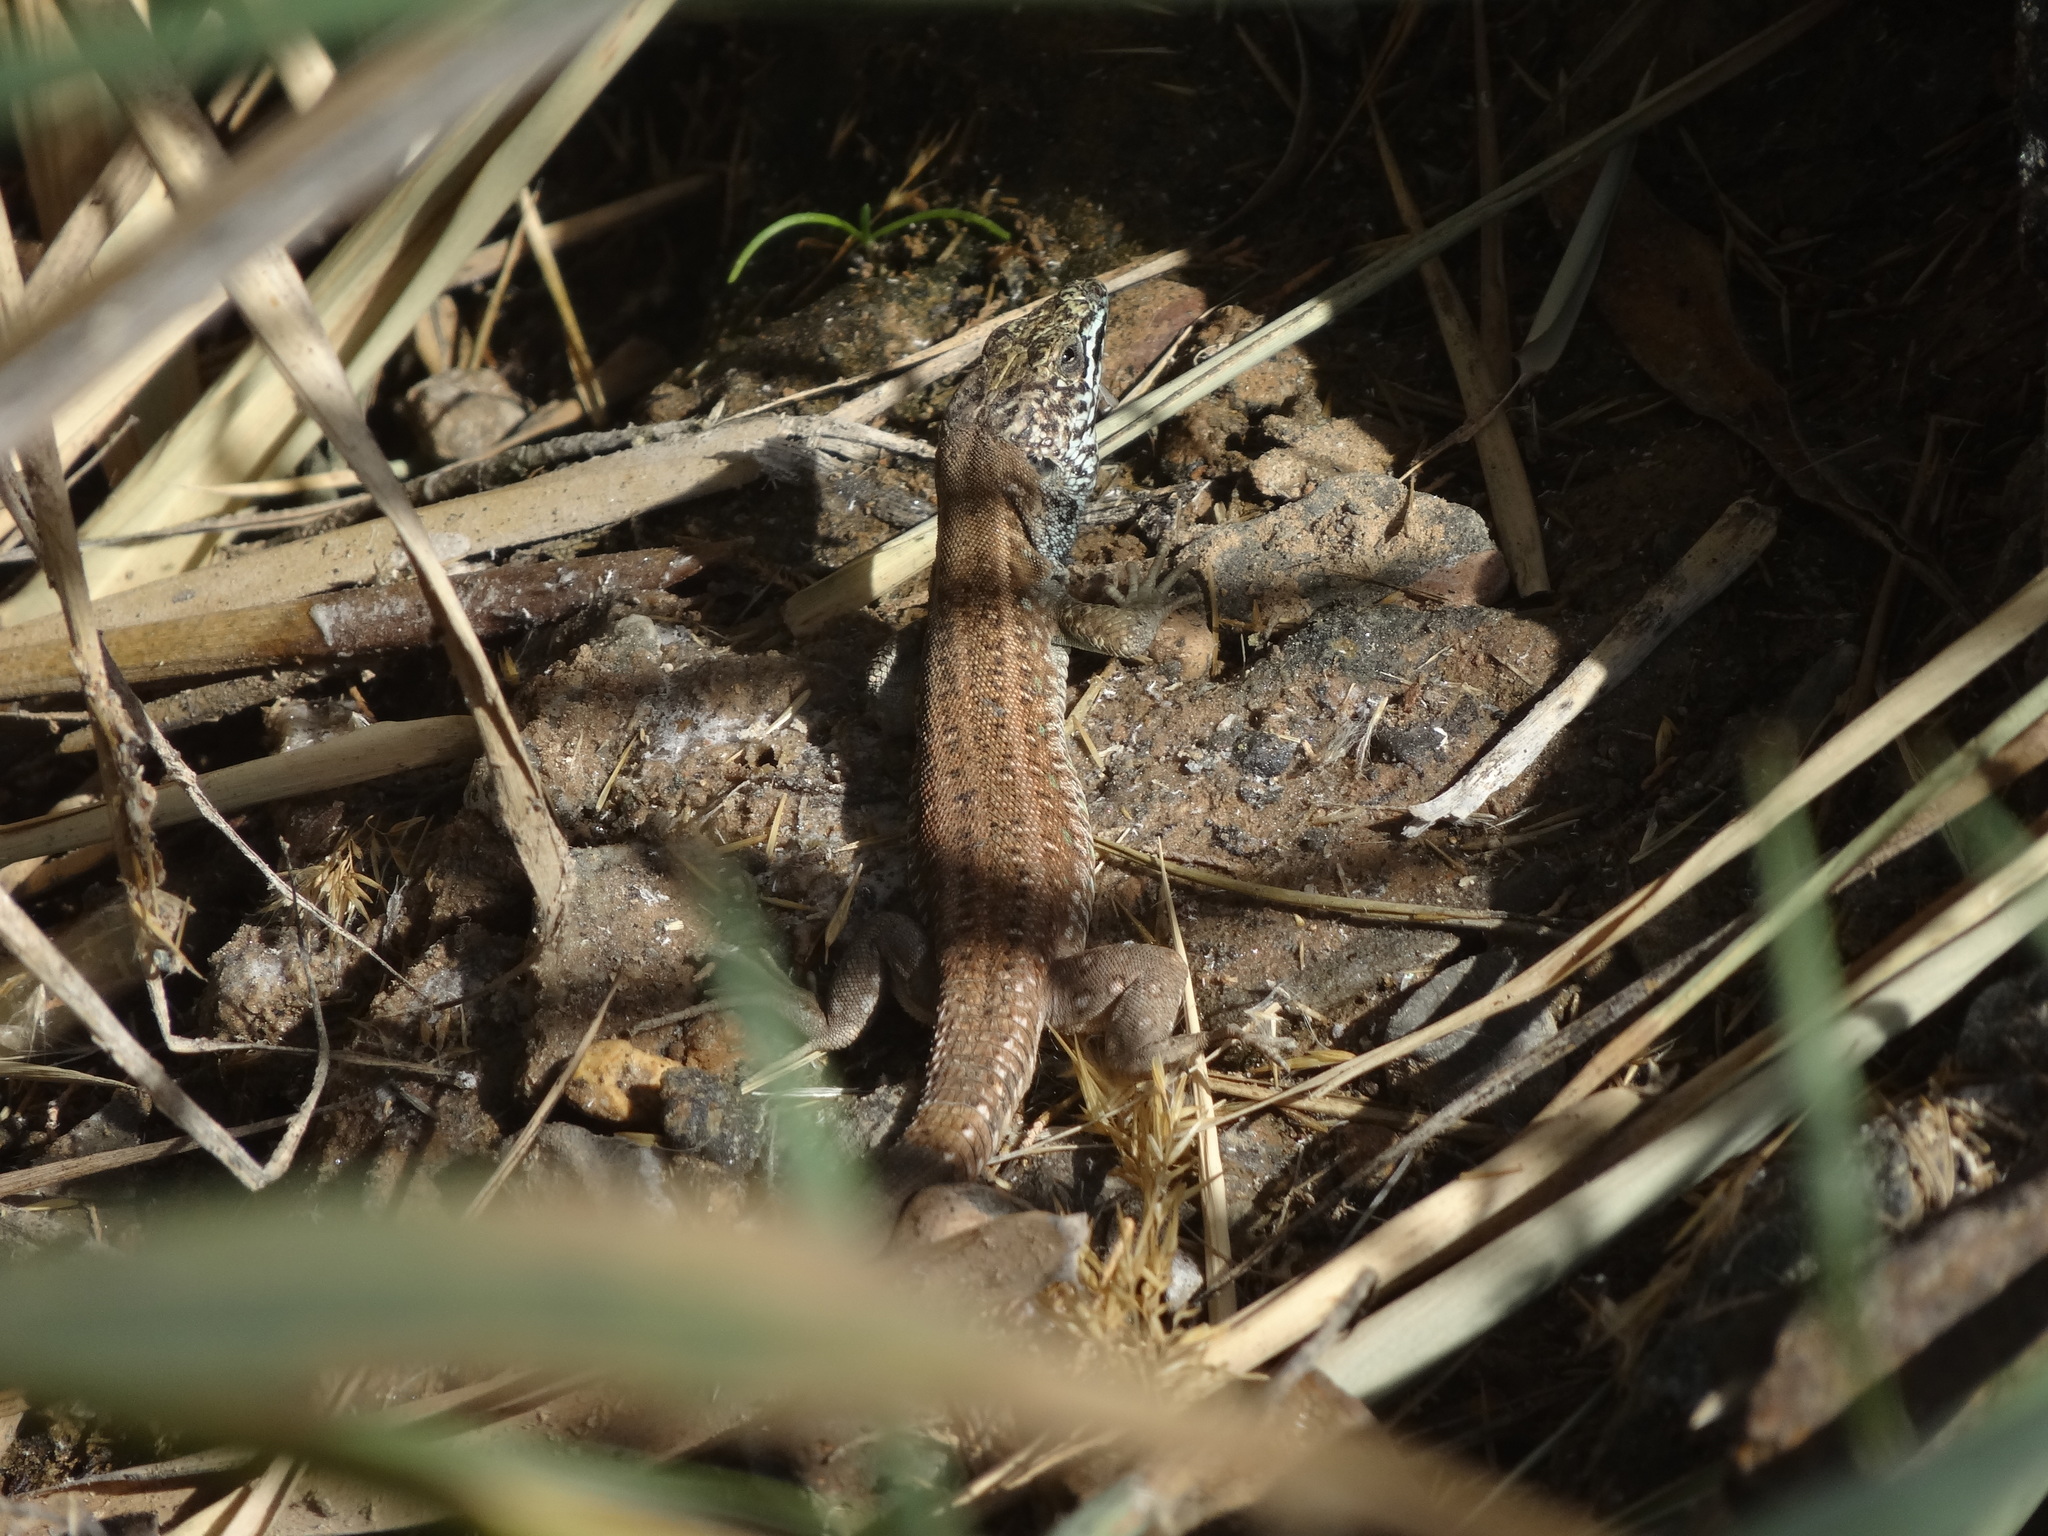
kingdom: Animalia
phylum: Chordata
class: Squamata
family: Lacertidae
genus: Gallotia
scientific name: Gallotia atlantica
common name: Atlantic lizard
